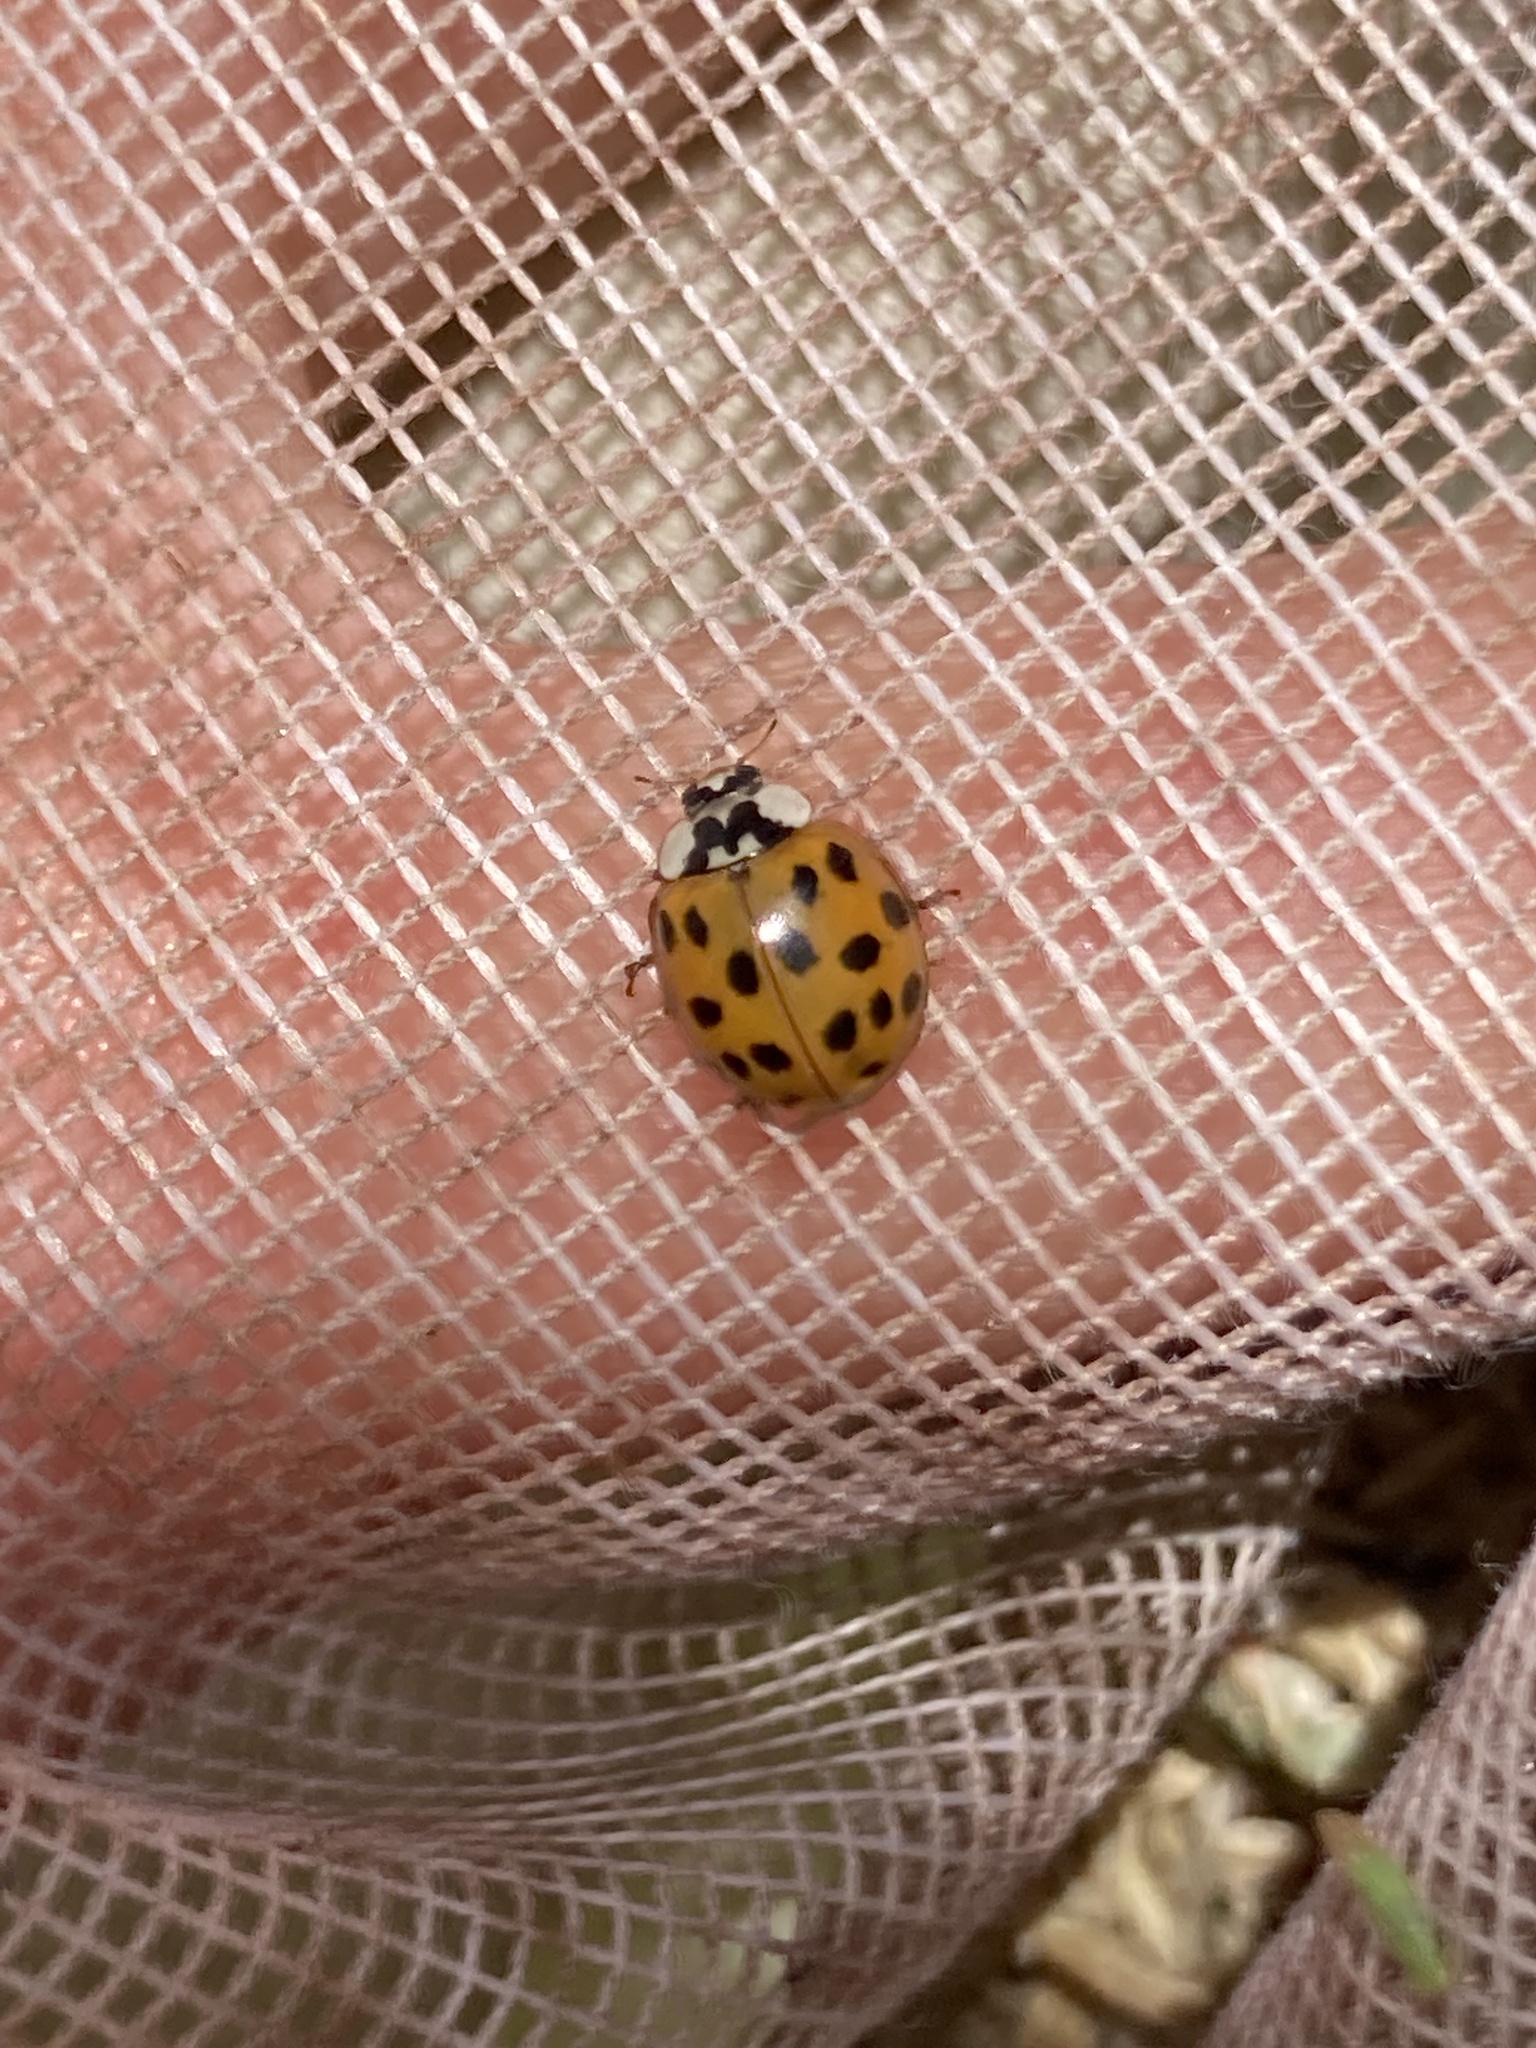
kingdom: Animalia
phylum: Arthropoda
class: Insecta
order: Coleoptera
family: Coccinellidae
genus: Harmonia
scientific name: Harmonia axyridis
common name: Harlequin ladybird
